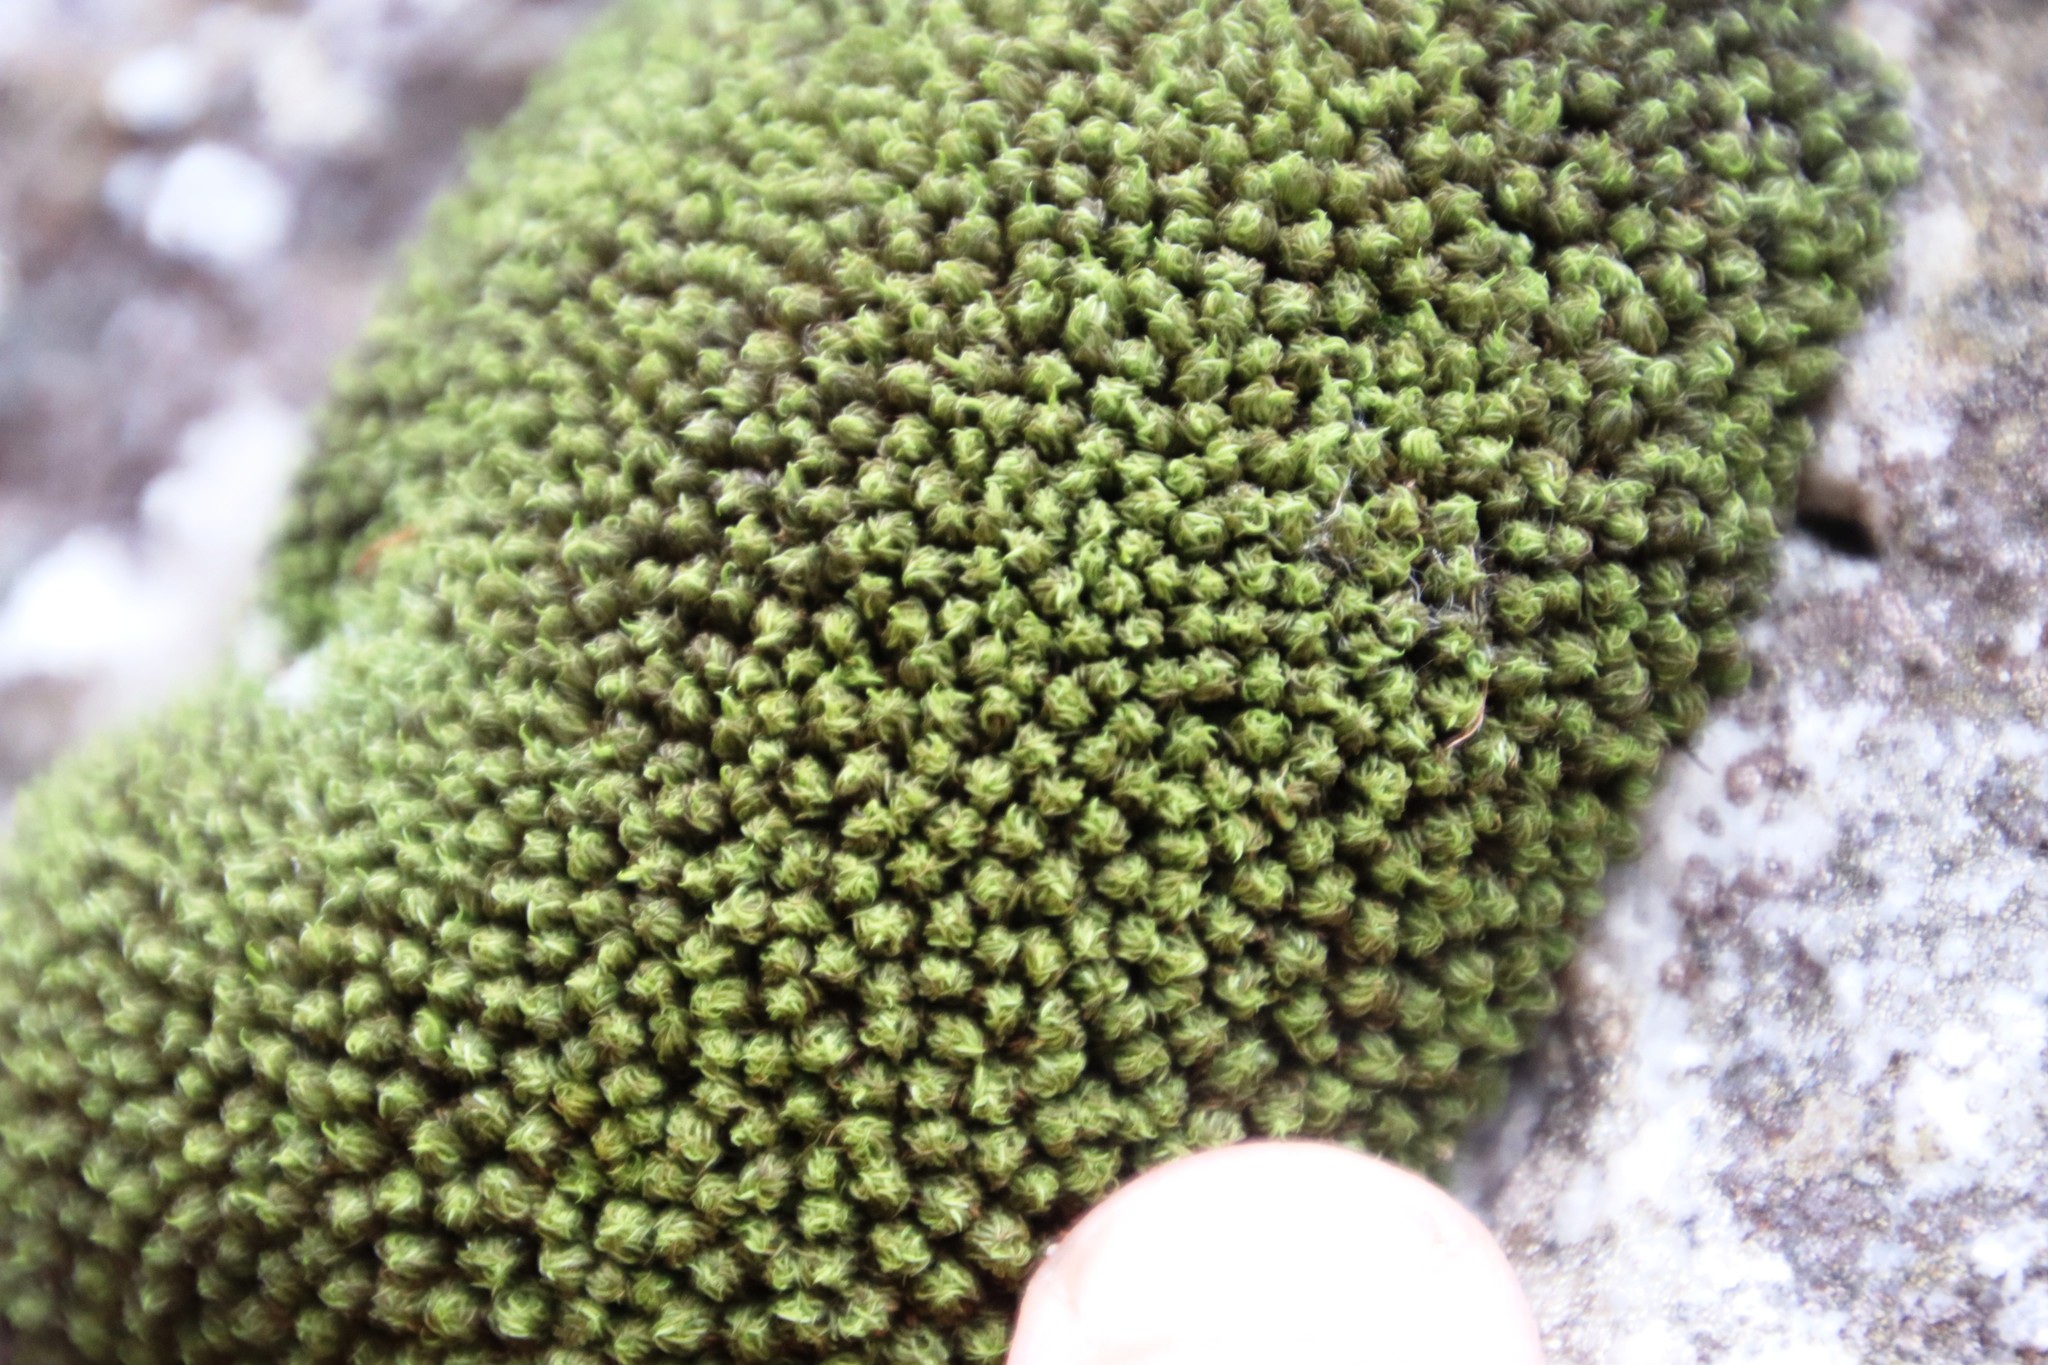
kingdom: Plantae
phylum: Bryophyta
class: Bryopsida
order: Pottiales
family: Pottiaceae
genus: Trichostomum
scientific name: Trichostomum brachydontium
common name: Variable crisp-moss
